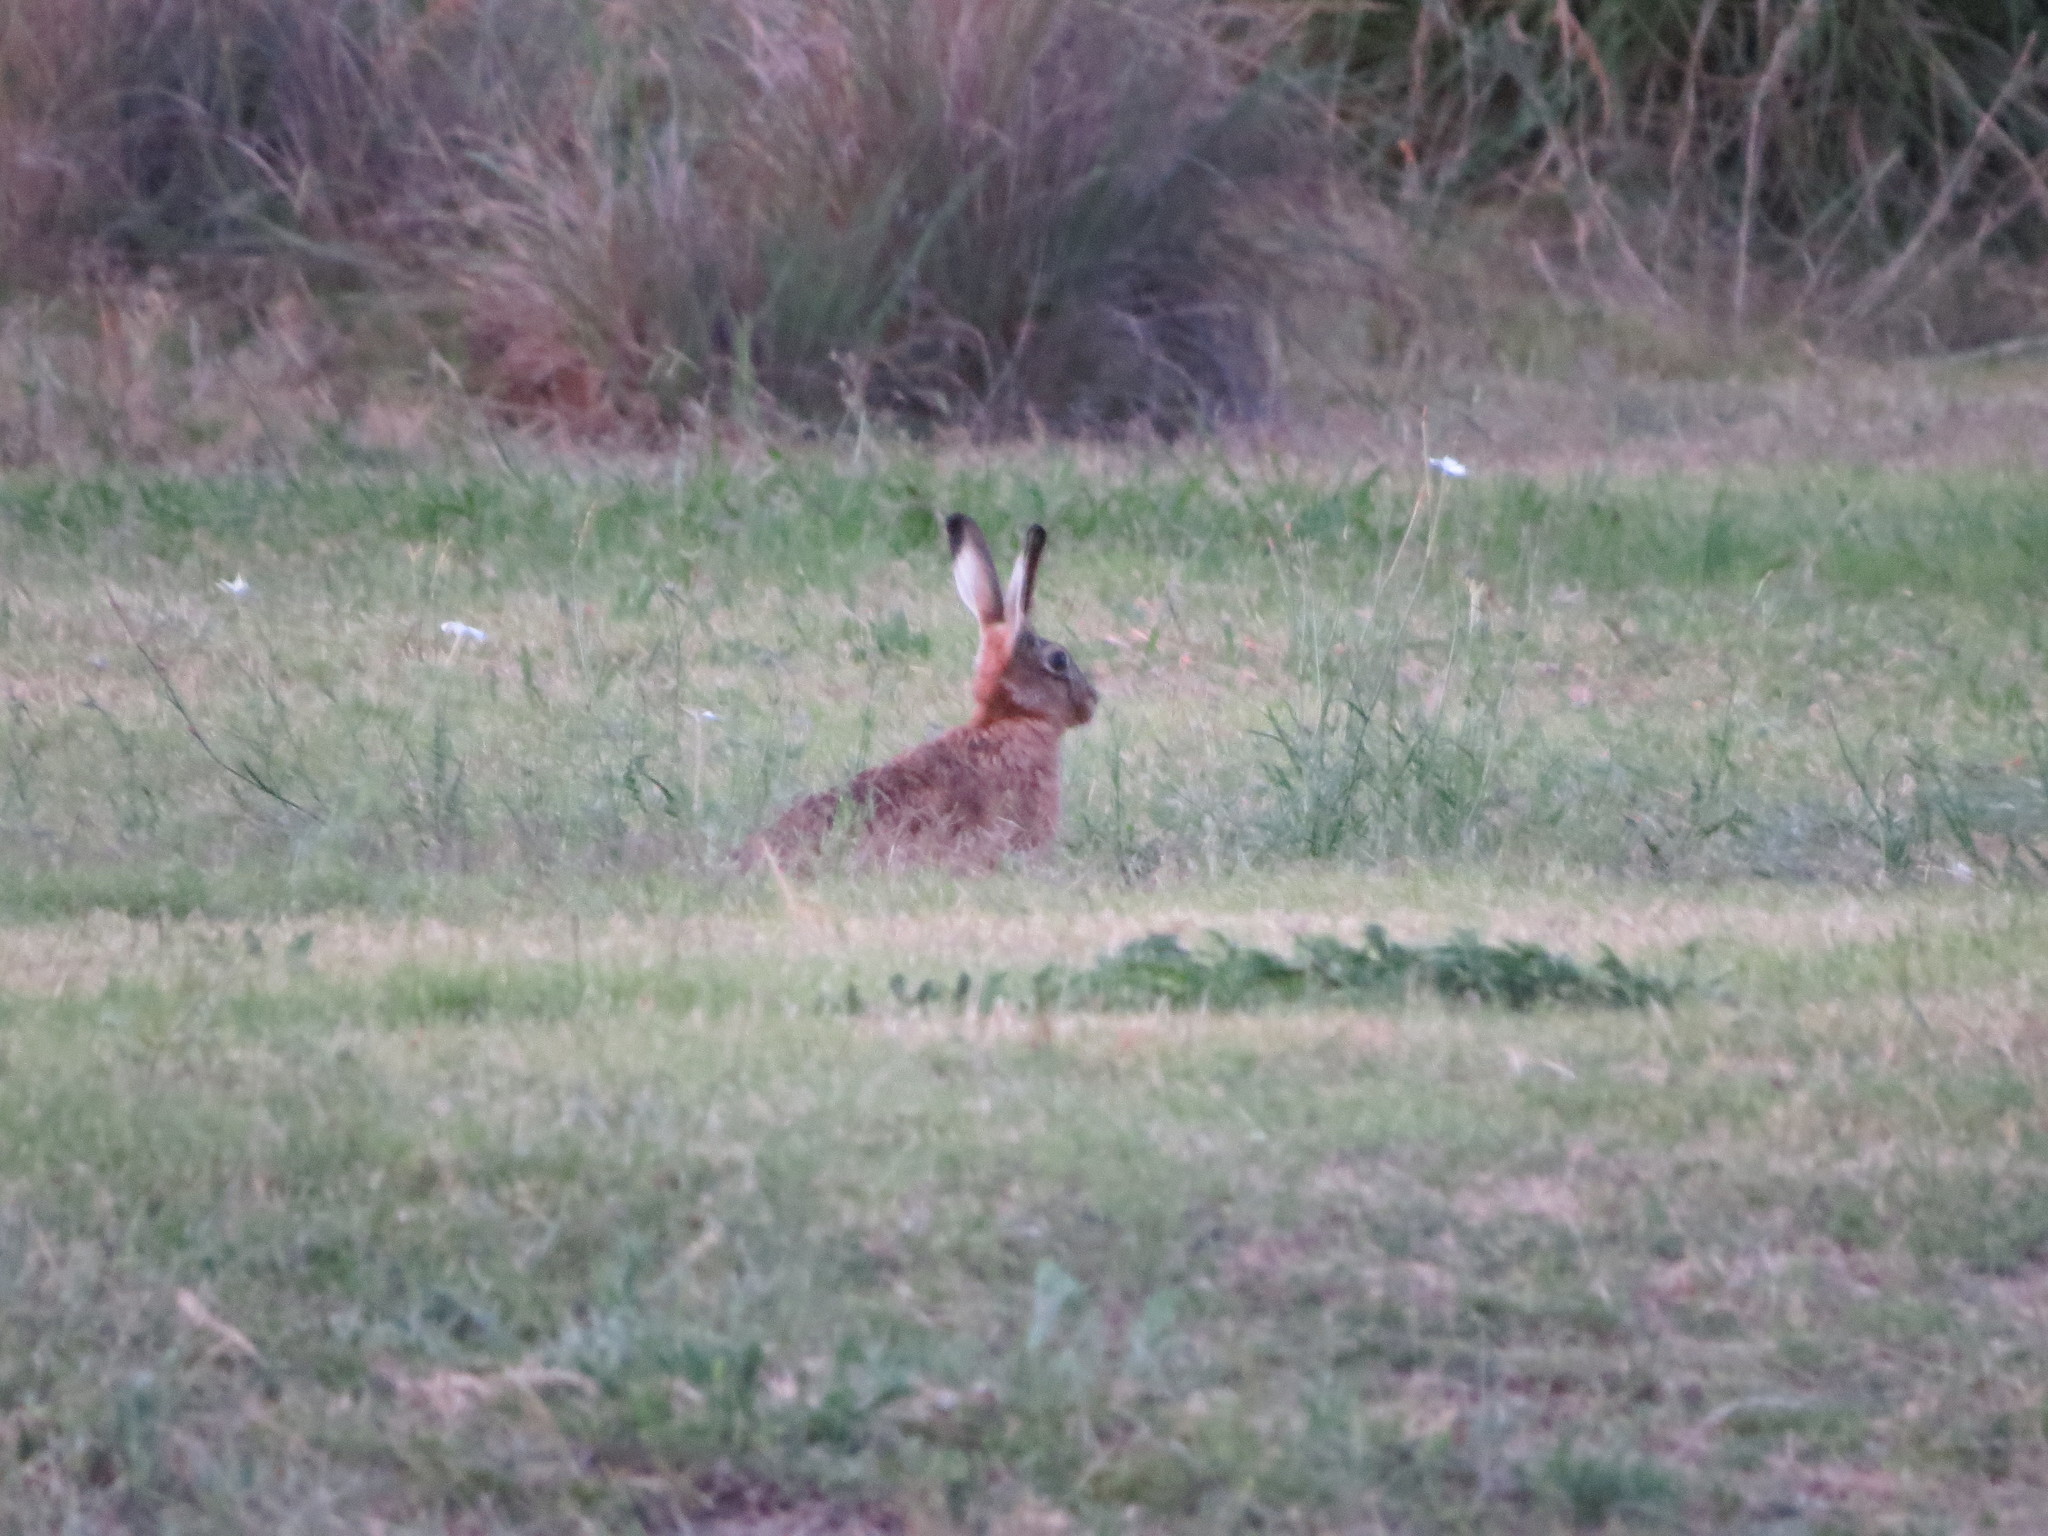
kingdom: Animalia
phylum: Chordata
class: Mammalia
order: Lagomorpha
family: Leporidae
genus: Lepus
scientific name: Lepus europaeus
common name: European hare
